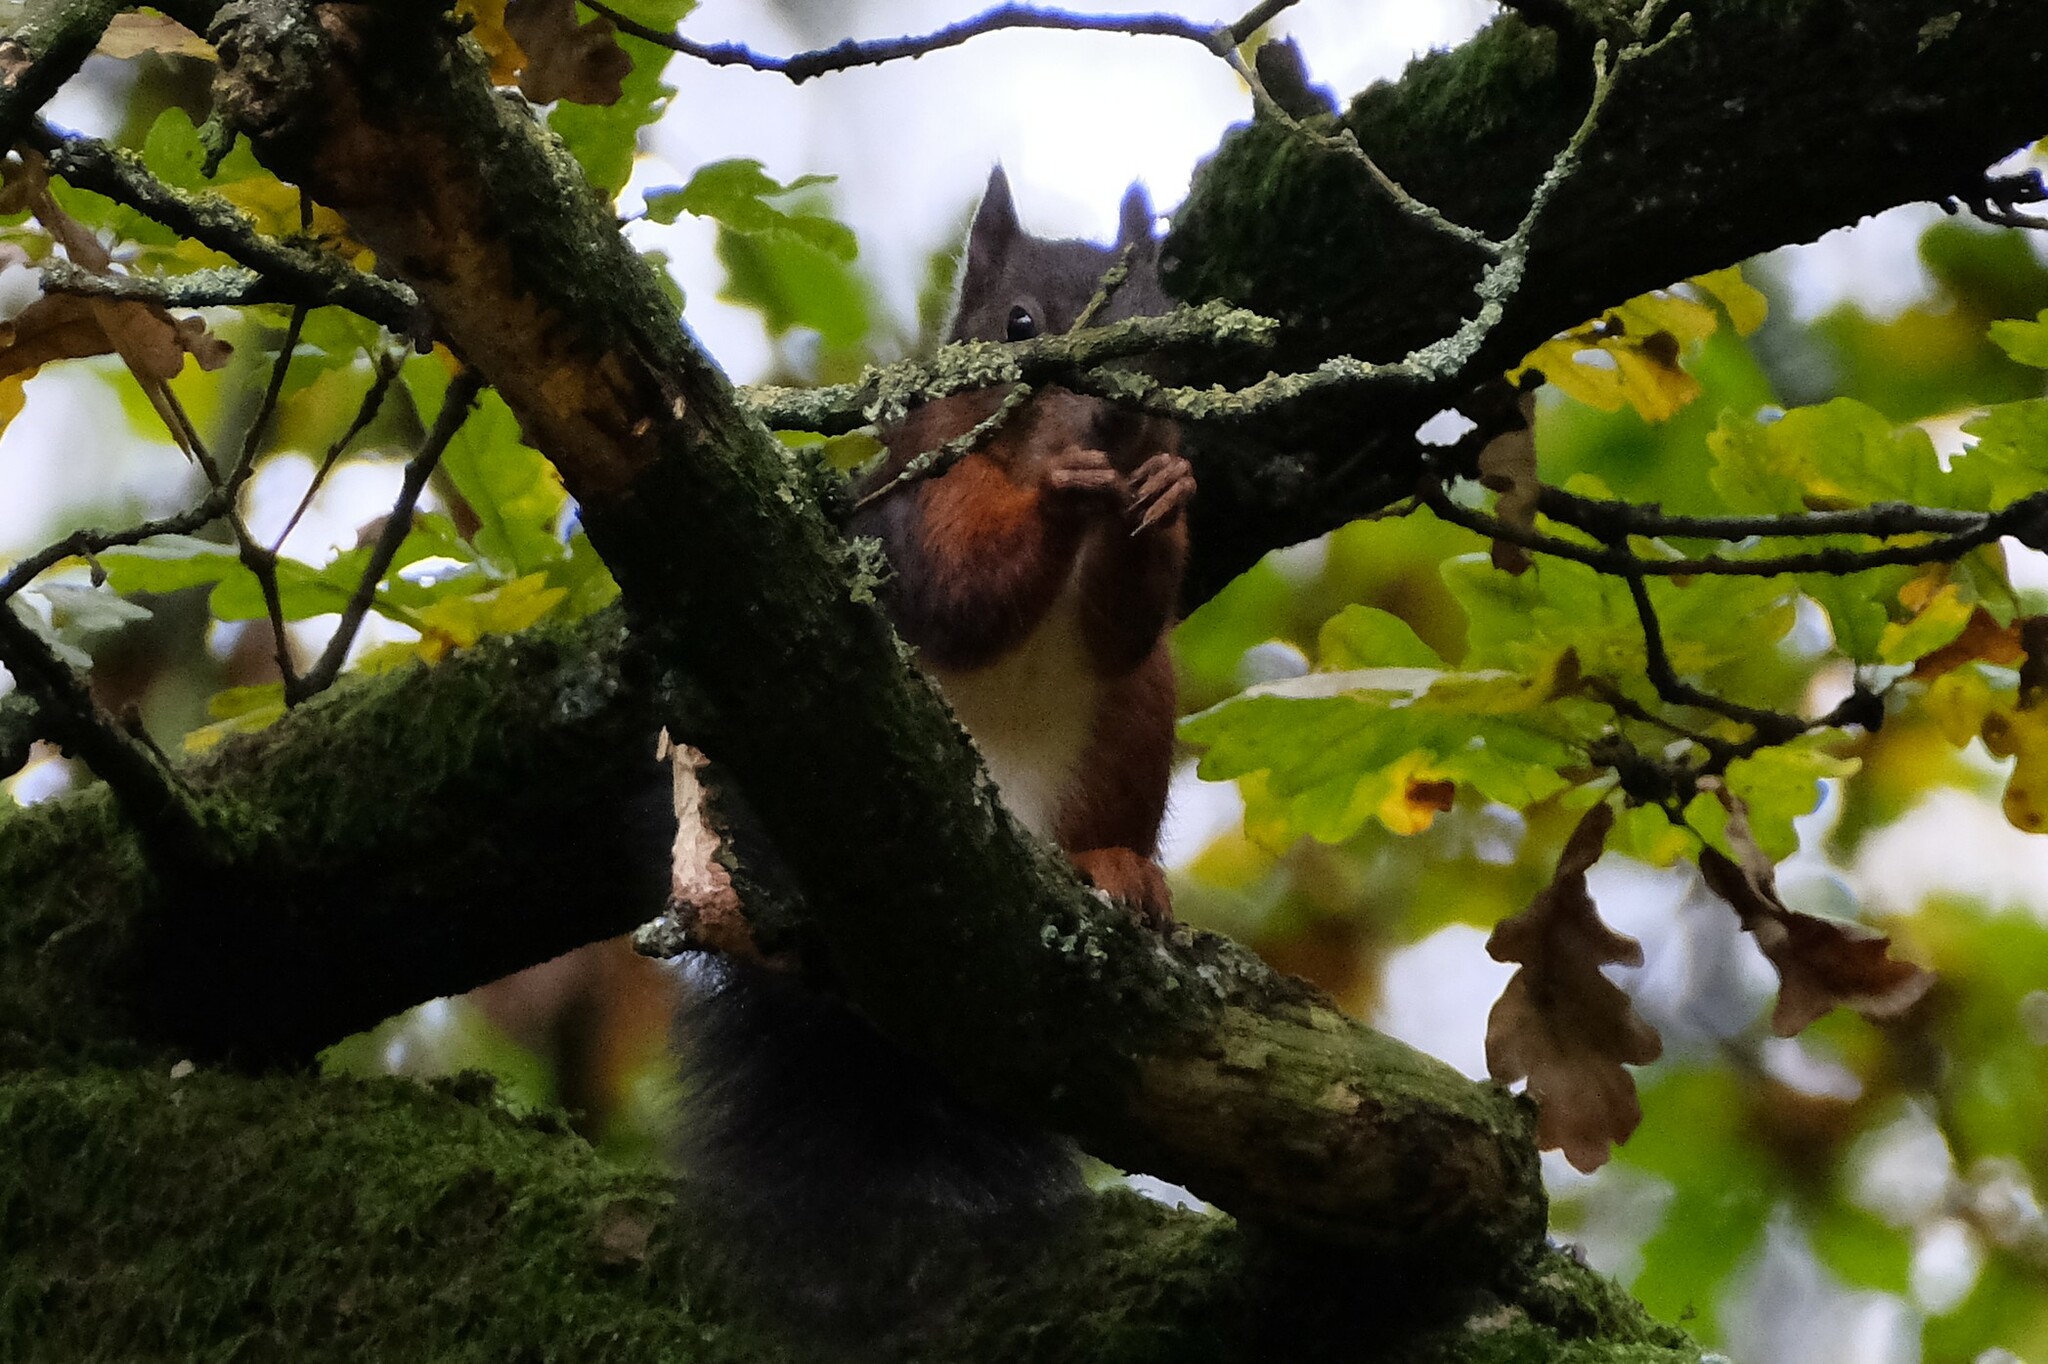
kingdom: Animalia
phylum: Chordata
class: Mammalia
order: Rodentia
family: Sciuridae
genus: Sciurus
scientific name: Sciurus vulgaris
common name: Eurasian red squirrel
